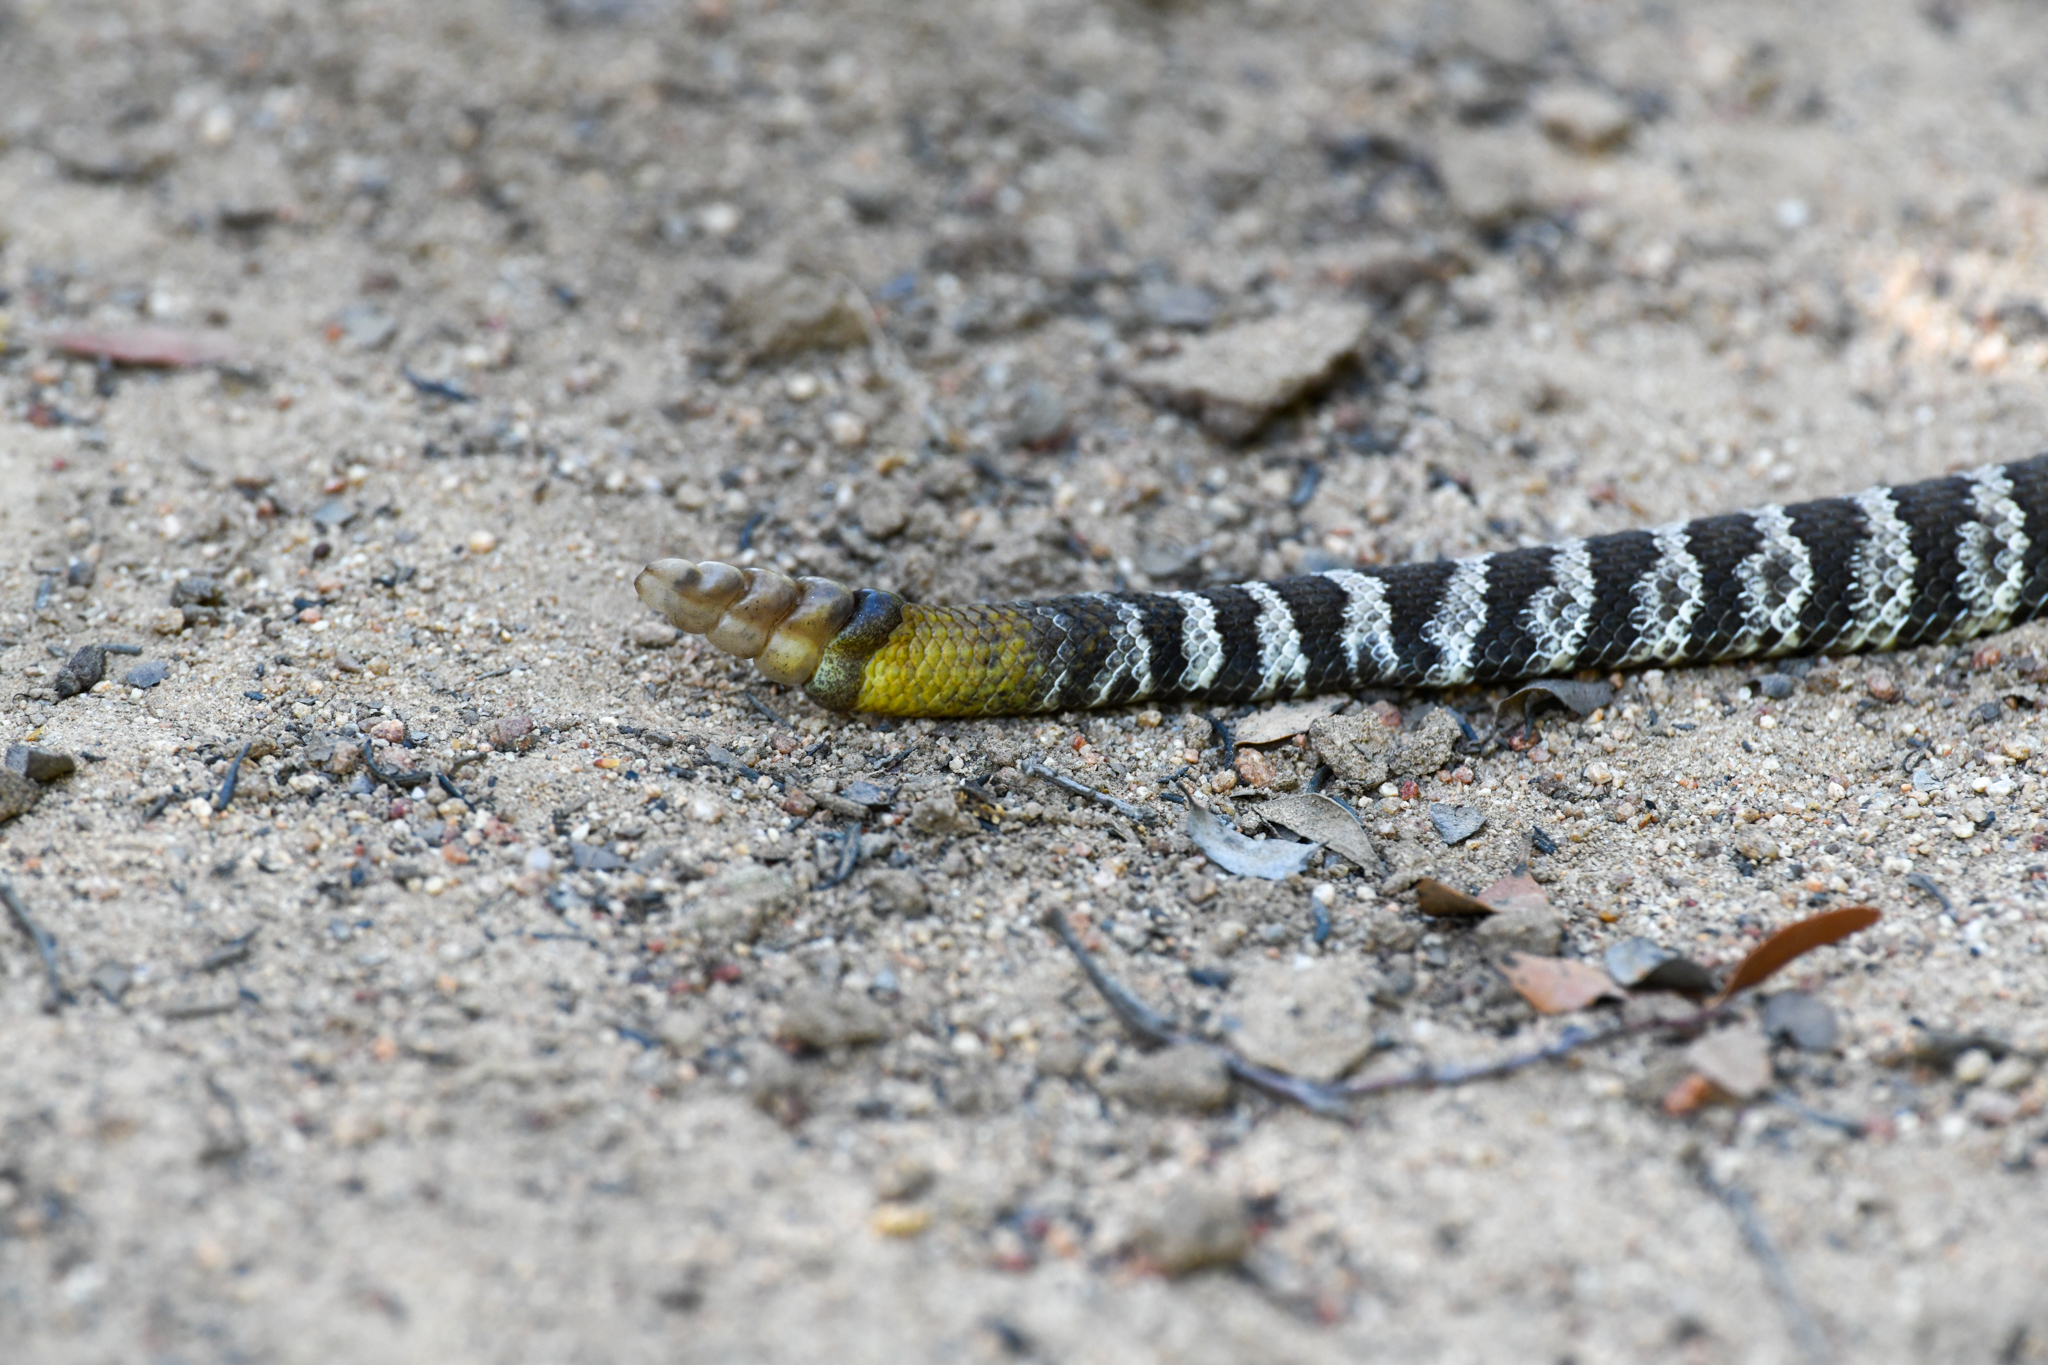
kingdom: Animalia
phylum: Chordata
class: Squamata
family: Viperidae
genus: Crotalus
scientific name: Crotalus oreganus
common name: Abyssus
